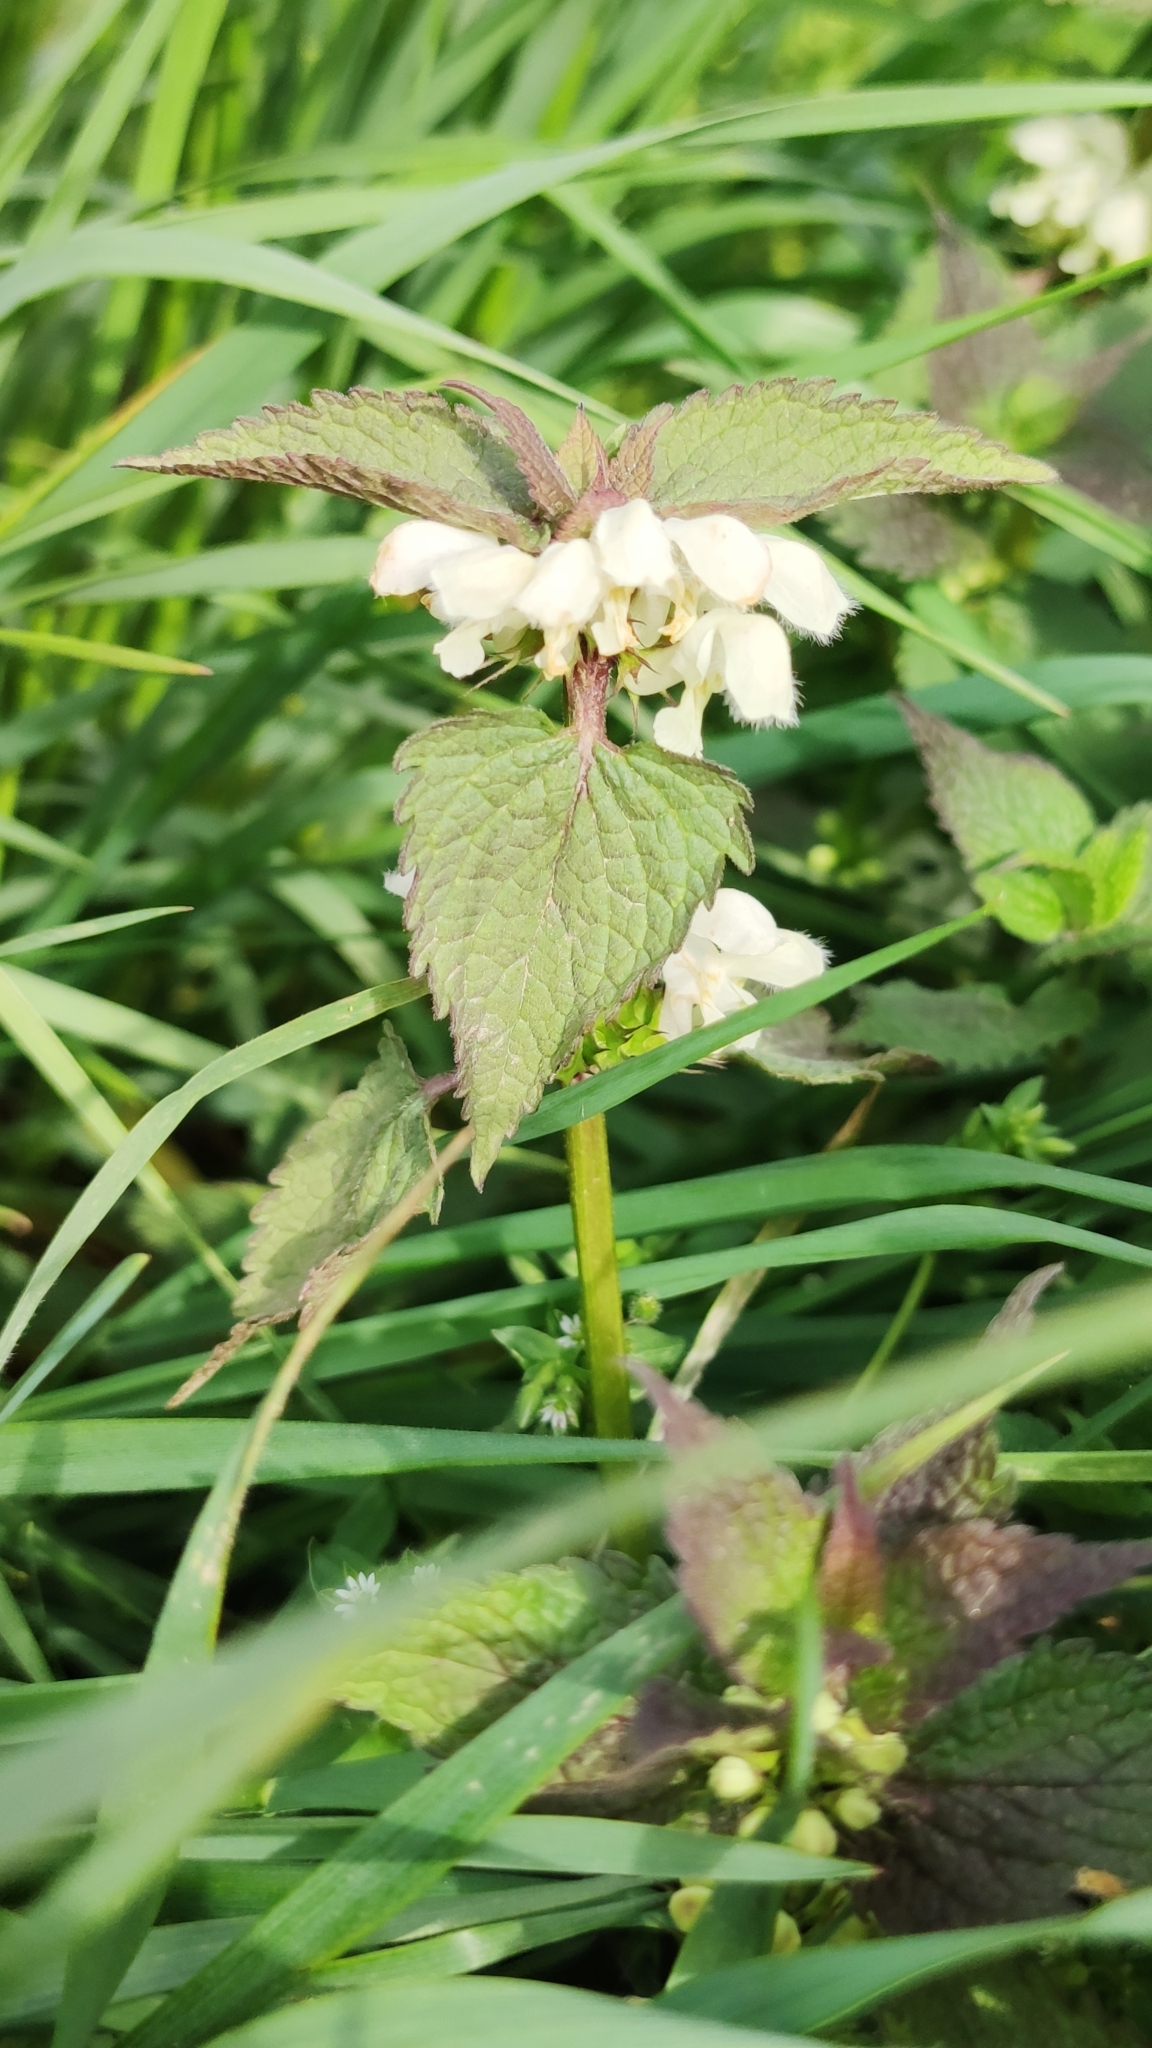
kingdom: Plantae
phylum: Tracheophyta
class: Magnoliopsida
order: Lamiales
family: Lamiaceae
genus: Lamium
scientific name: Lamium album
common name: White dead-nettle
